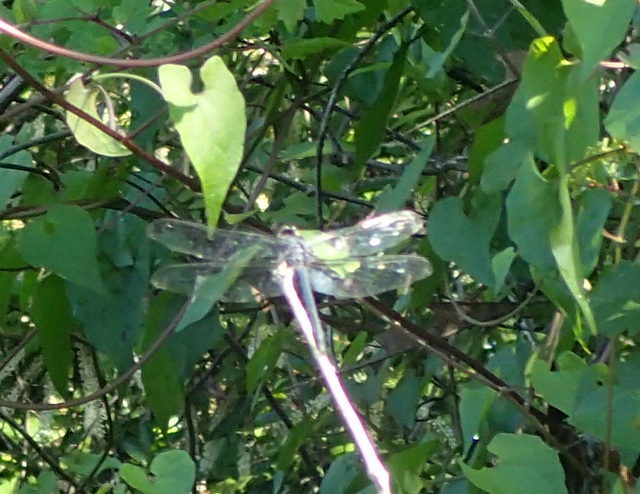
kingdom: Animalia
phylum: Arthropoda
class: Insecta
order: Odonata
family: Libellulidae
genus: Erythemis
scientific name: Erythemis simplicicollis
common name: Eastern pondhawk
